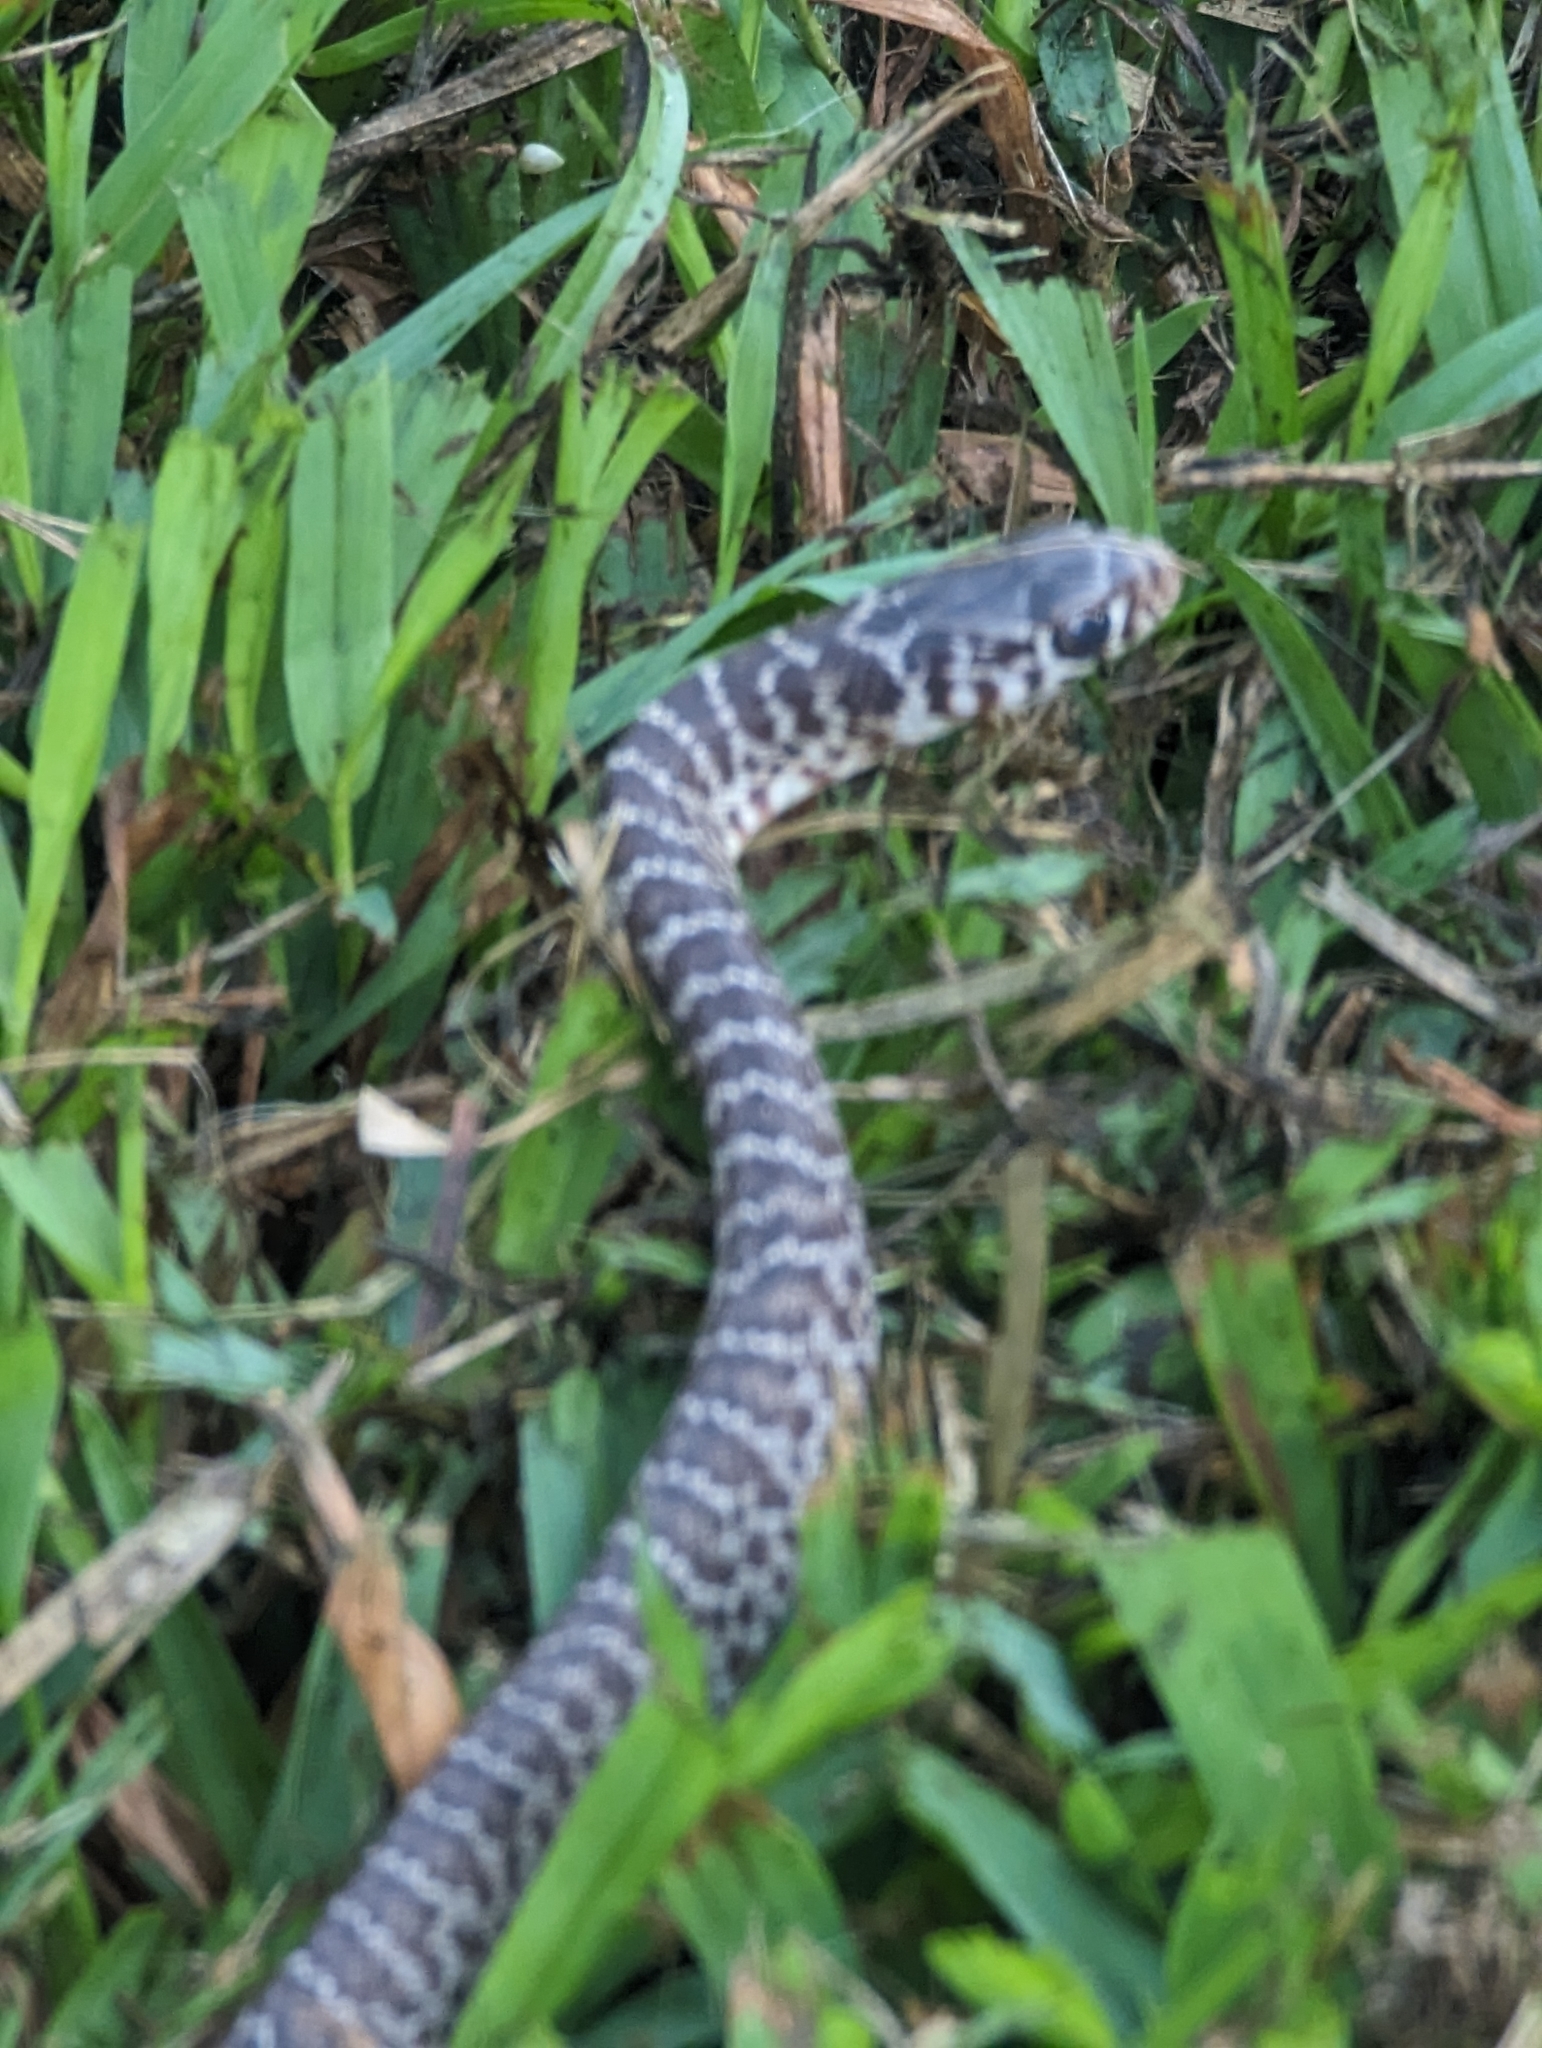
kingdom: Animalia
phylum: Chordata
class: Squamata
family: Colubridae
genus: Coluber
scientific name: Coluber constrictor
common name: Eastern racer
